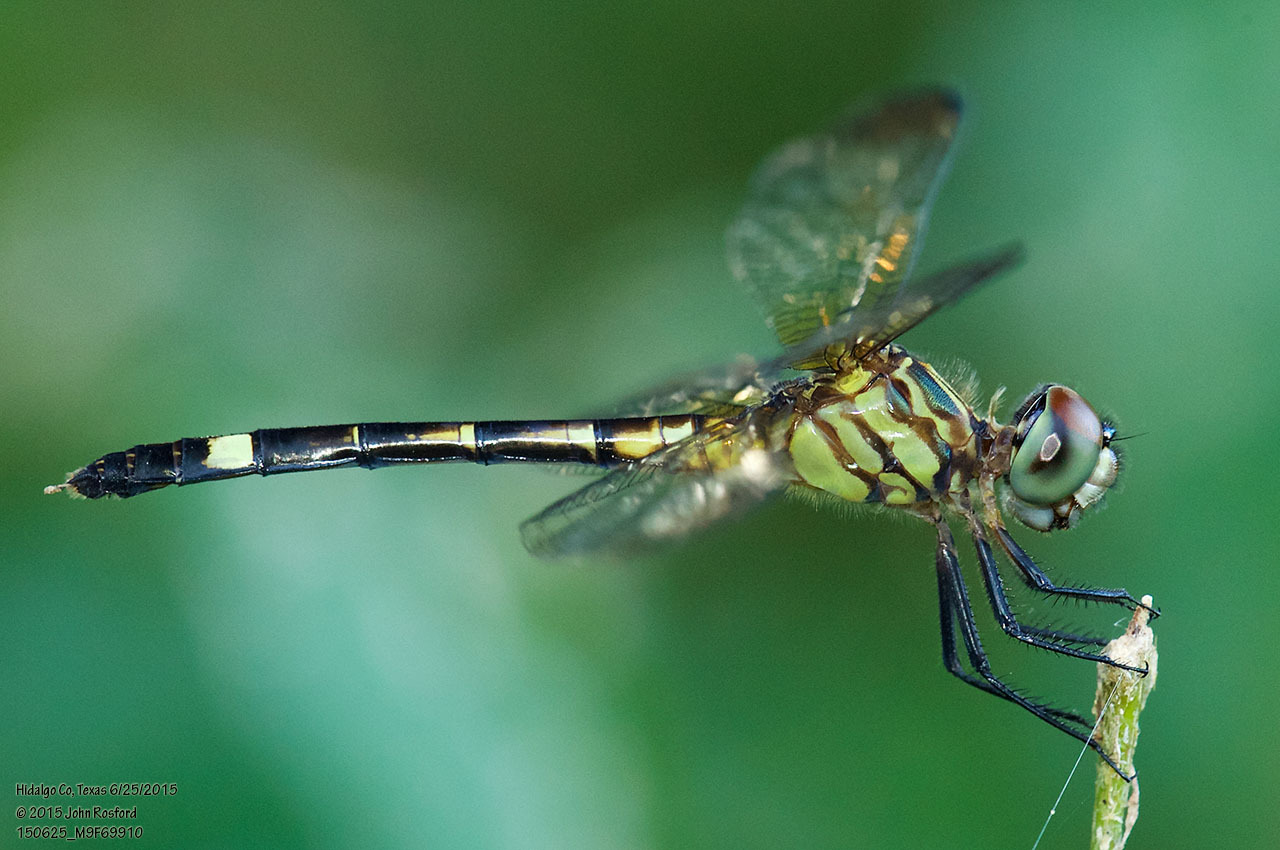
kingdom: Animalia
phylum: Arthropoda
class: Insecta
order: Odonata
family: Libellulidae
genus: Micrathyria
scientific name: Micrathyria didyma
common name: Three-striped dasher
